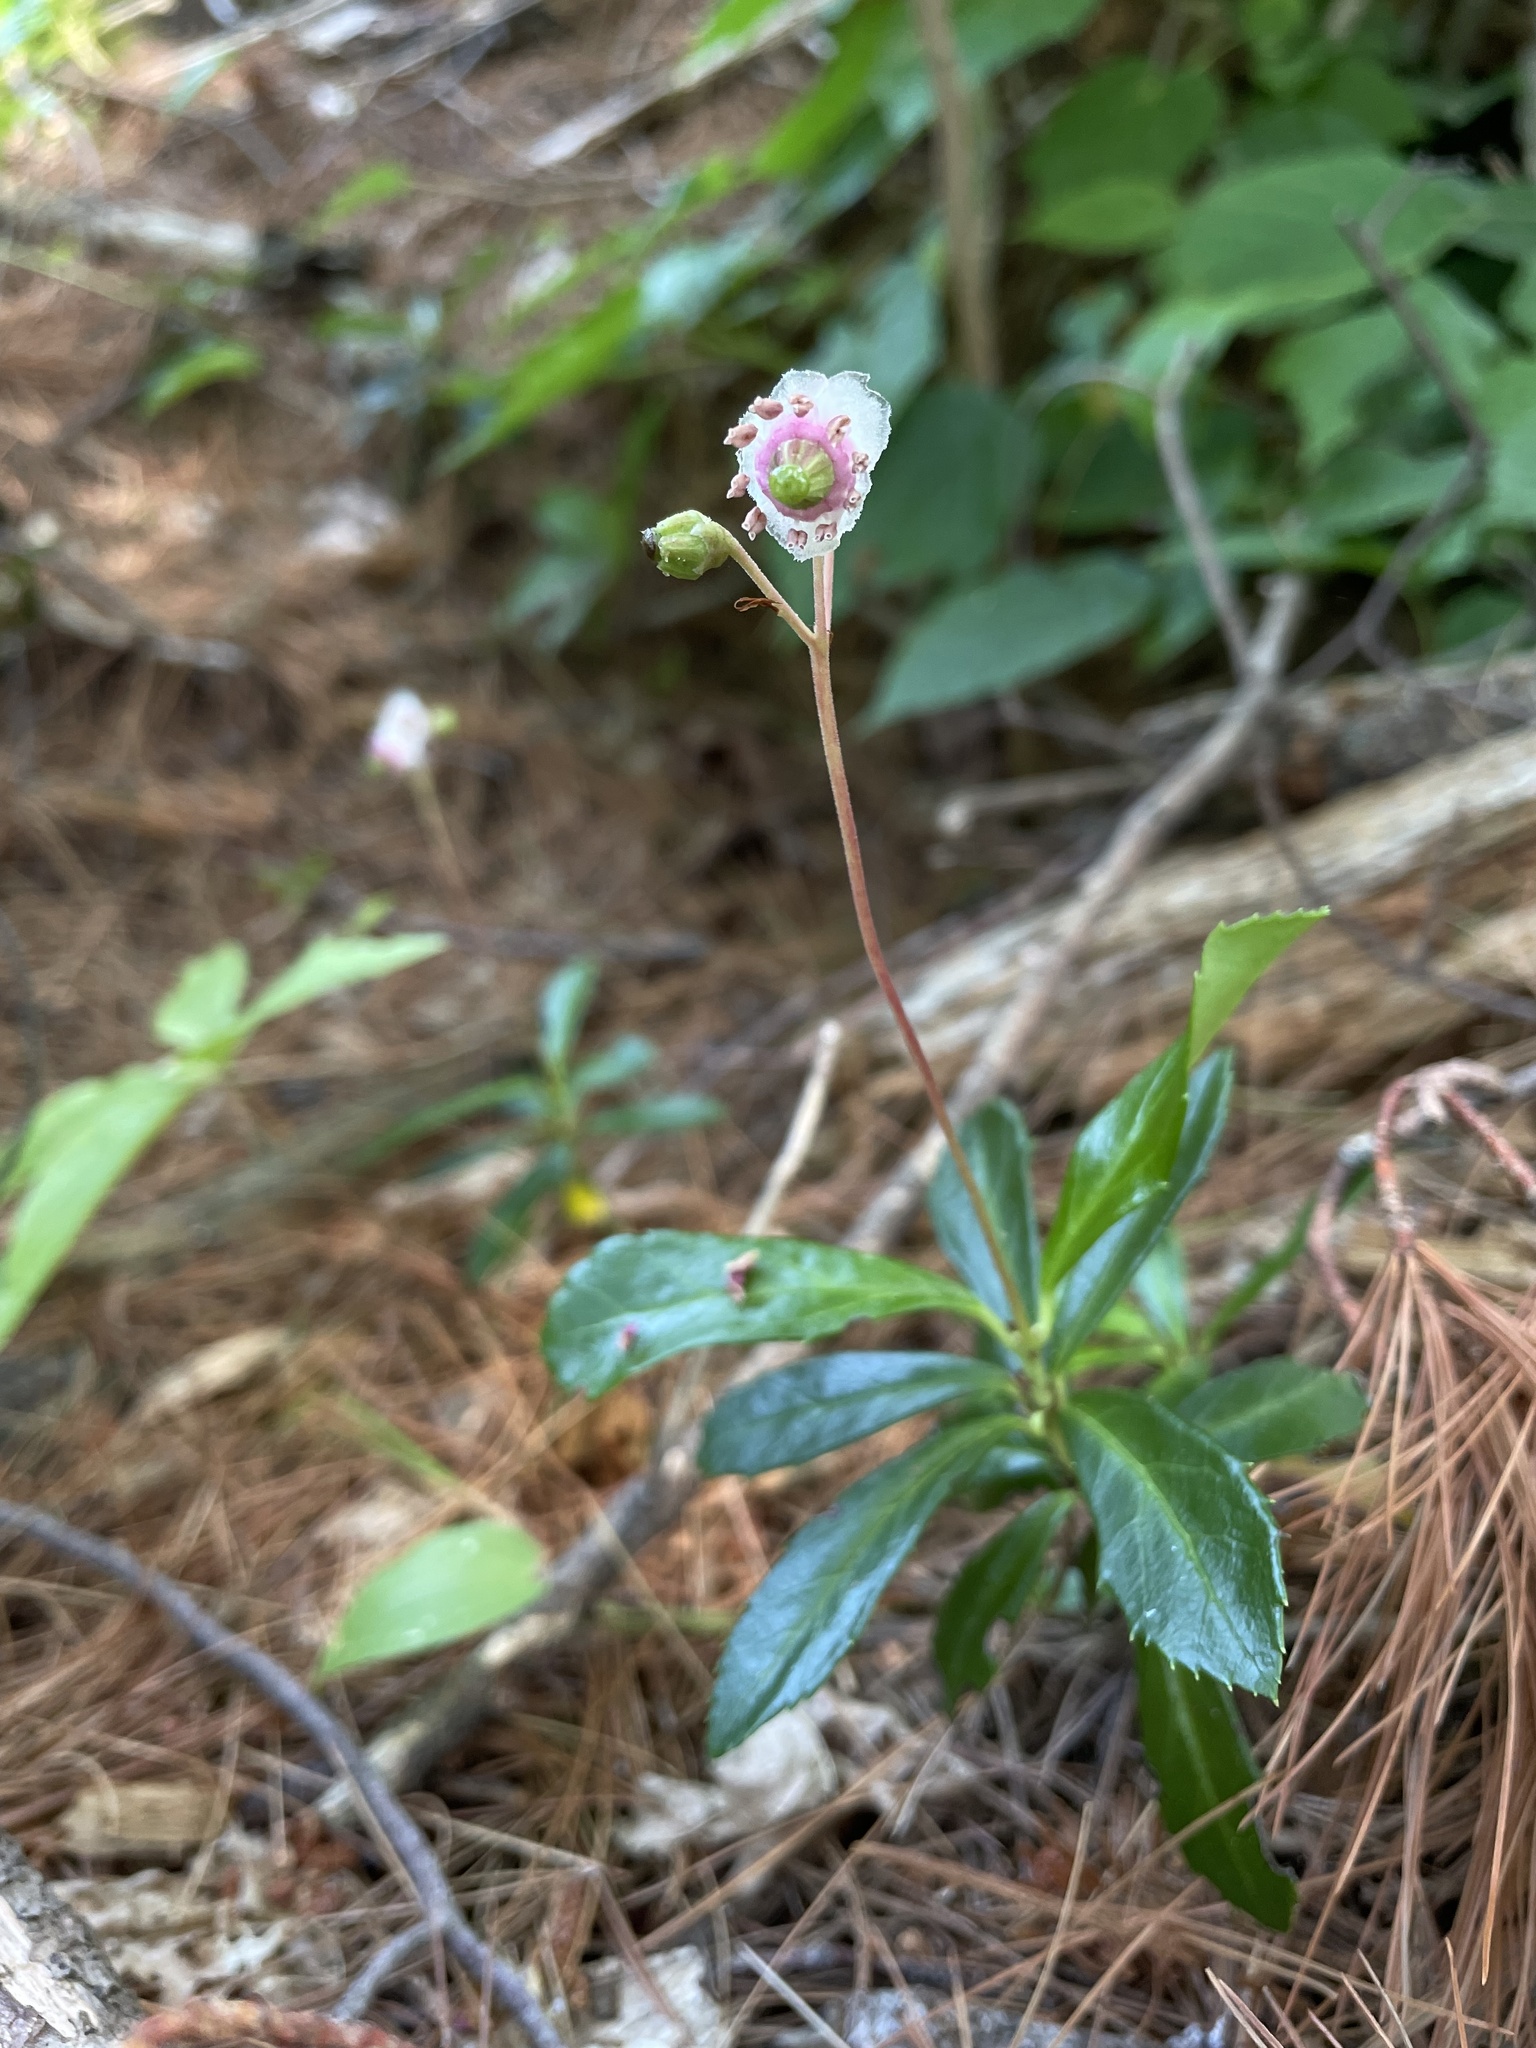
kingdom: Plantae
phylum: Tracheophyta
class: Magnoliopsida
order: Ericales
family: Ericaceae
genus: Chimaphila
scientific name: Chimaphila umbellata
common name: Pipsissewa
